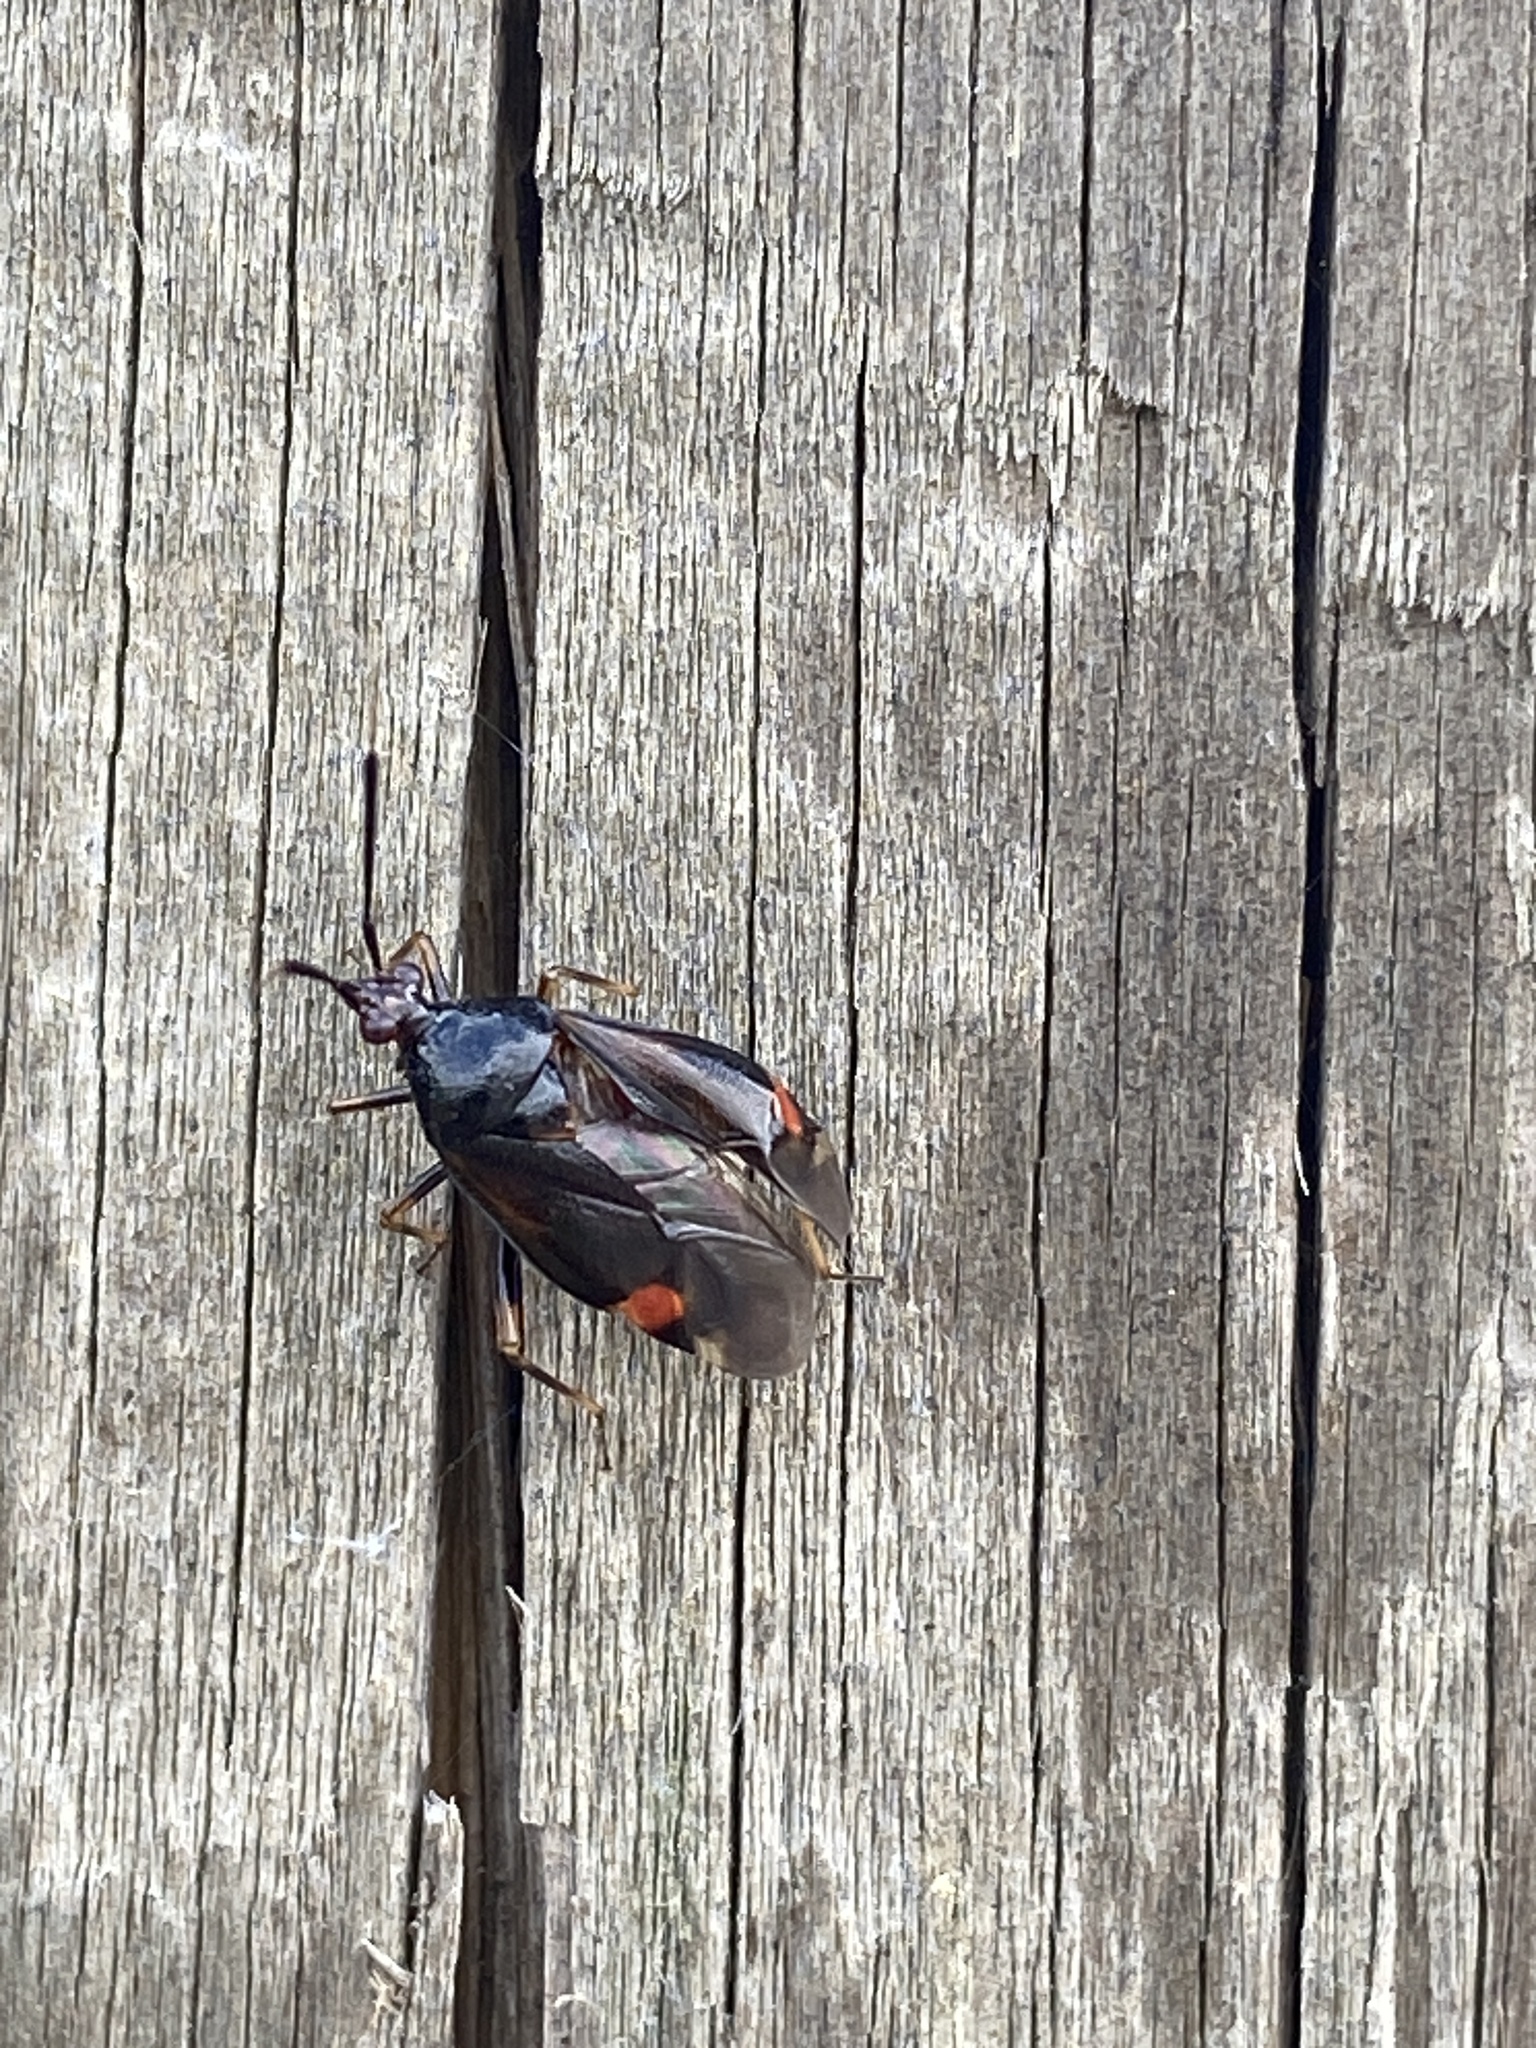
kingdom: Animalia
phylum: Arthropoda
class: Insecta
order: Hemiptera
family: Miridae
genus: Deraeocoris
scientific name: Deraeocoris ruber
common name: Plant bug
